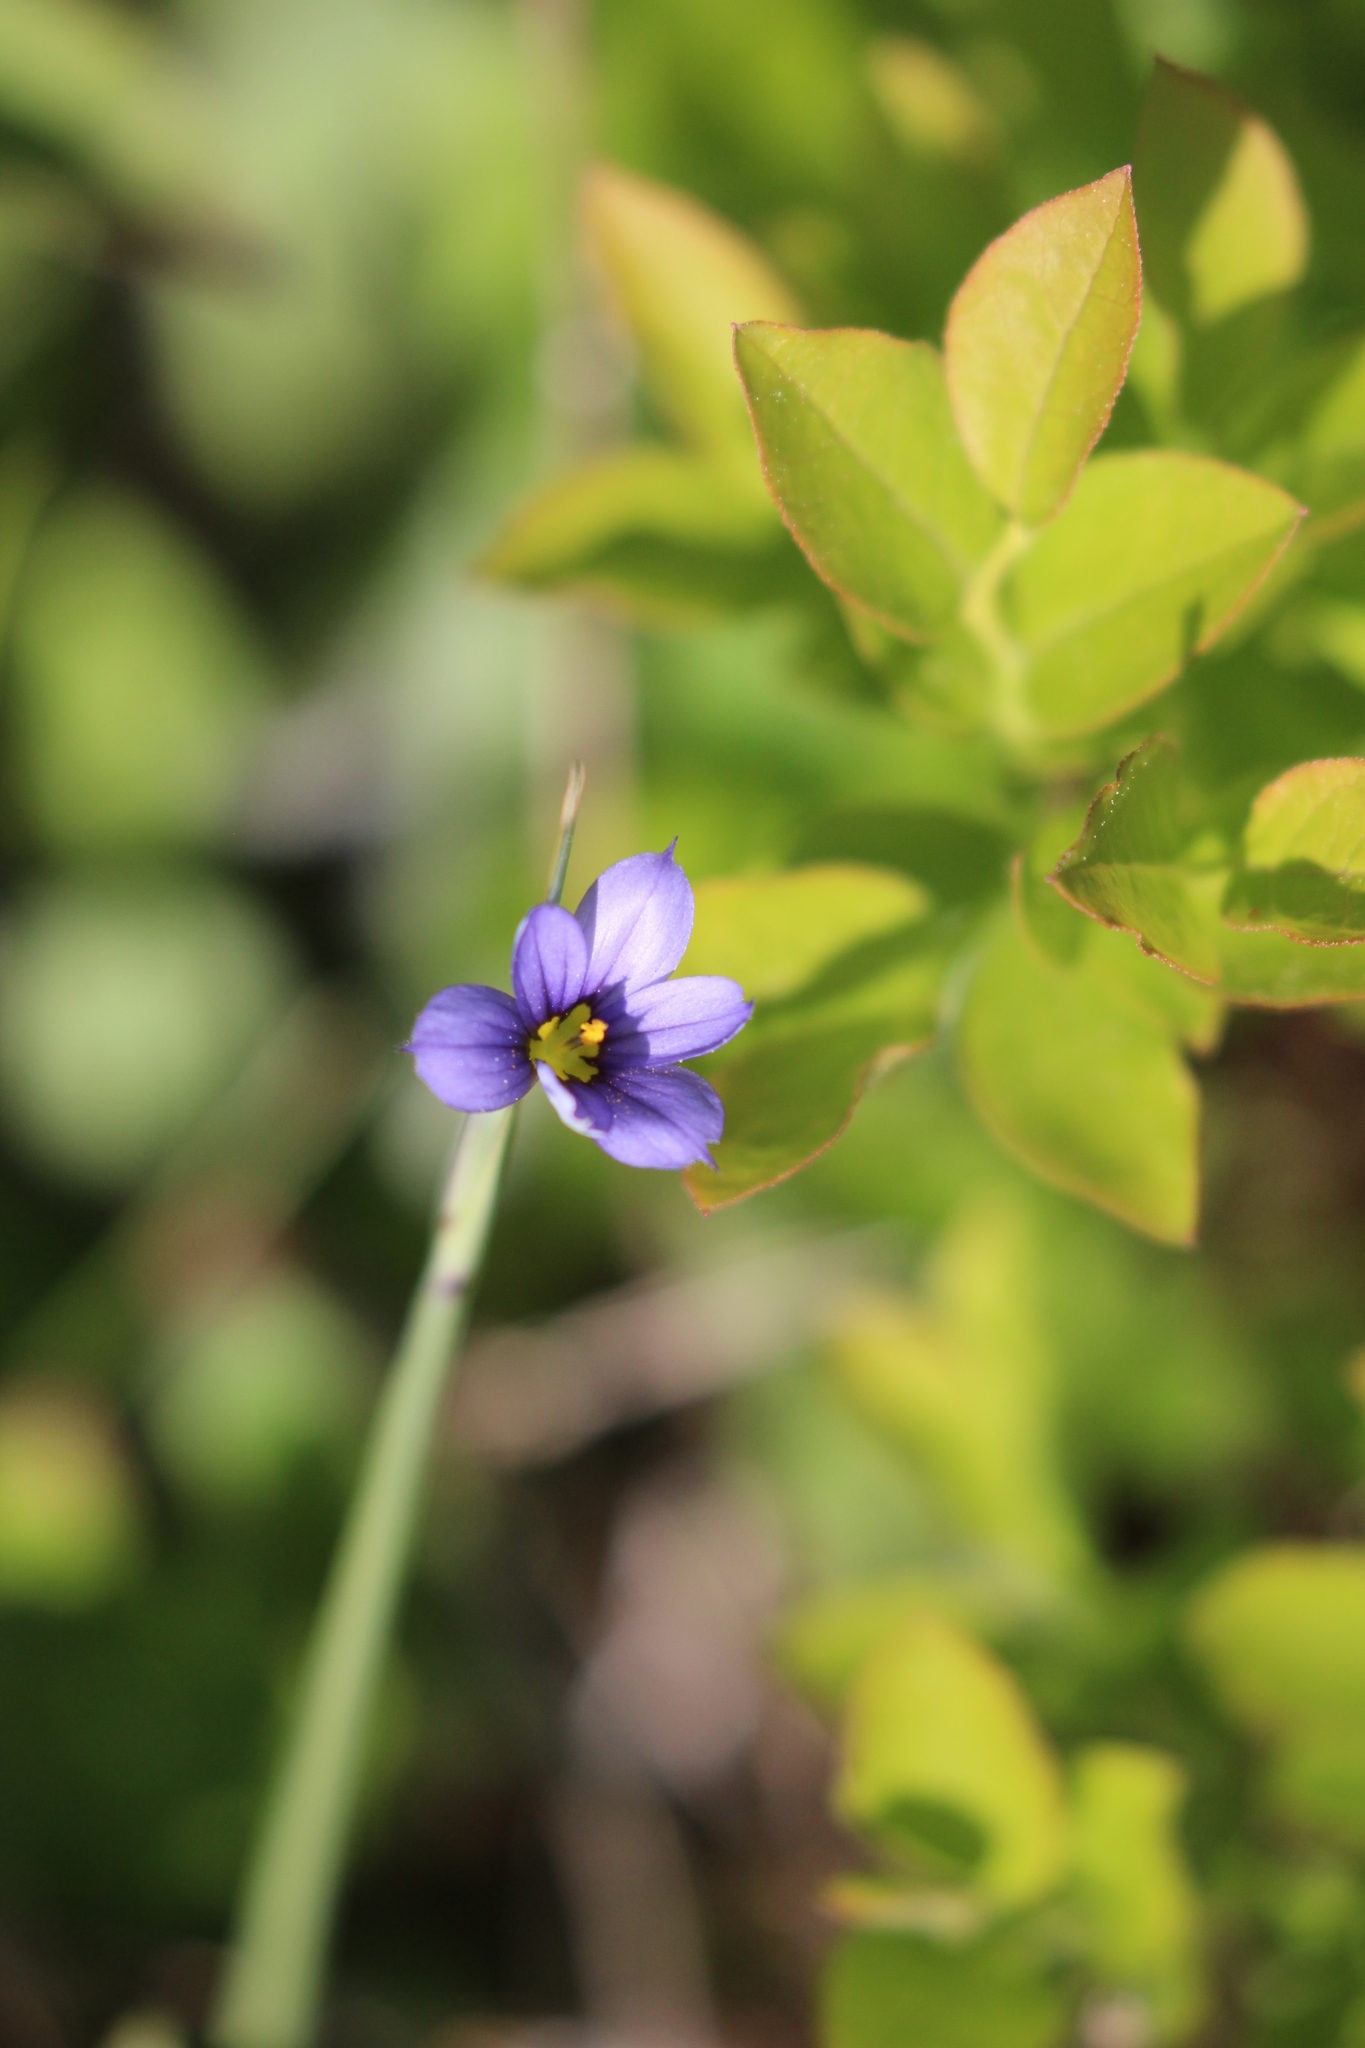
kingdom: Plantae
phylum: Tracheophyta
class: Liliopsida
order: Asparagales
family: Iridaceae
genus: Sisyrinchium
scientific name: Sisyrinchium montanum
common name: American blue-eyed-grass
